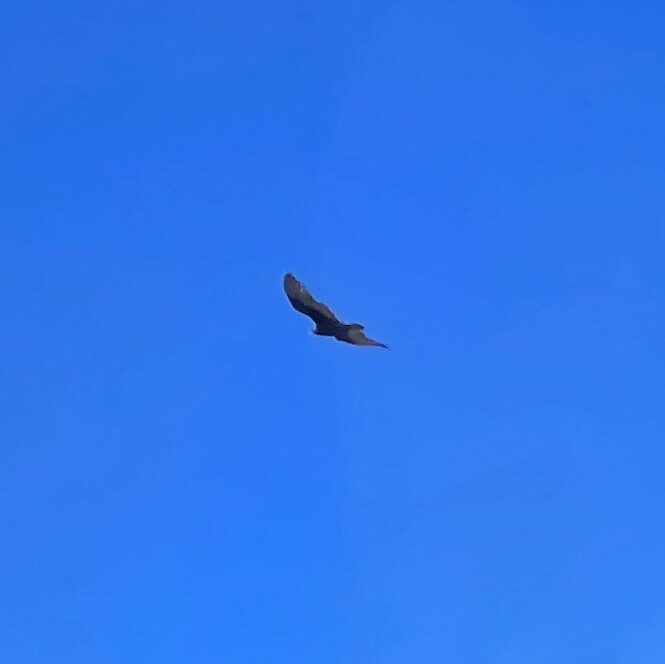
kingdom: Animalia
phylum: Chordata
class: Aves
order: Accipitriformes
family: Cathartidae
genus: Cathartes
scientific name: Cathartes aura
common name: Turkey vulture
